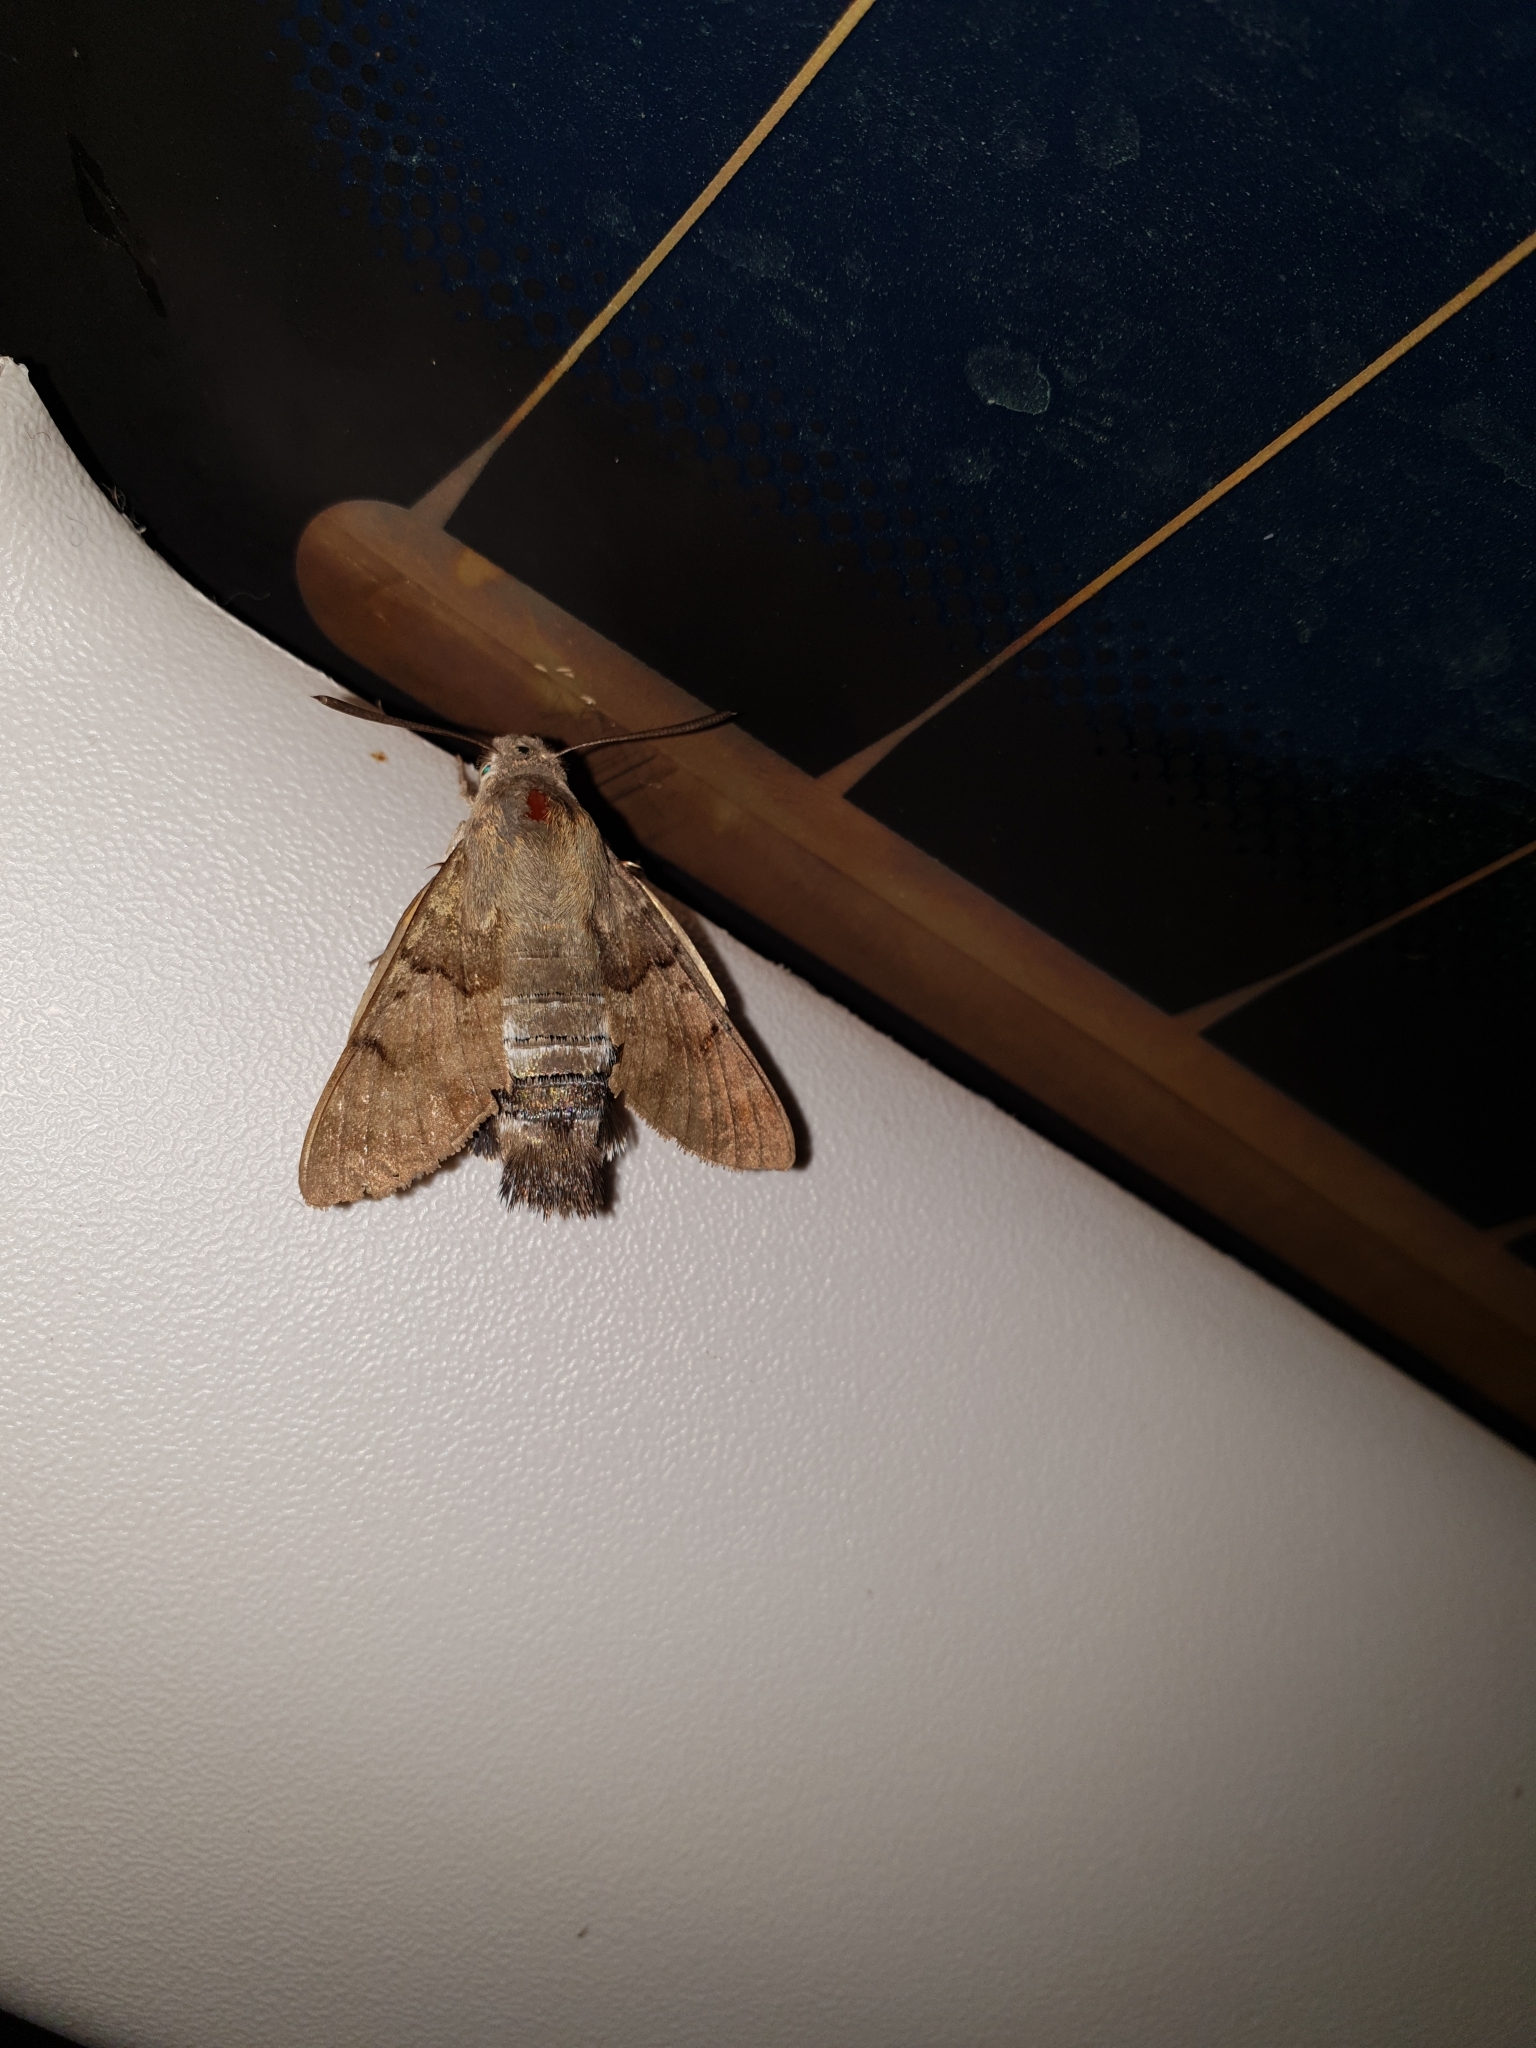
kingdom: Animalia
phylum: Arthropoda
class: Insecta
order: Lepidoptera
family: Sphingidae
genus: Macroglossum
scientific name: Macroglossum stellatarum
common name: Humming-bird hawk-moth
